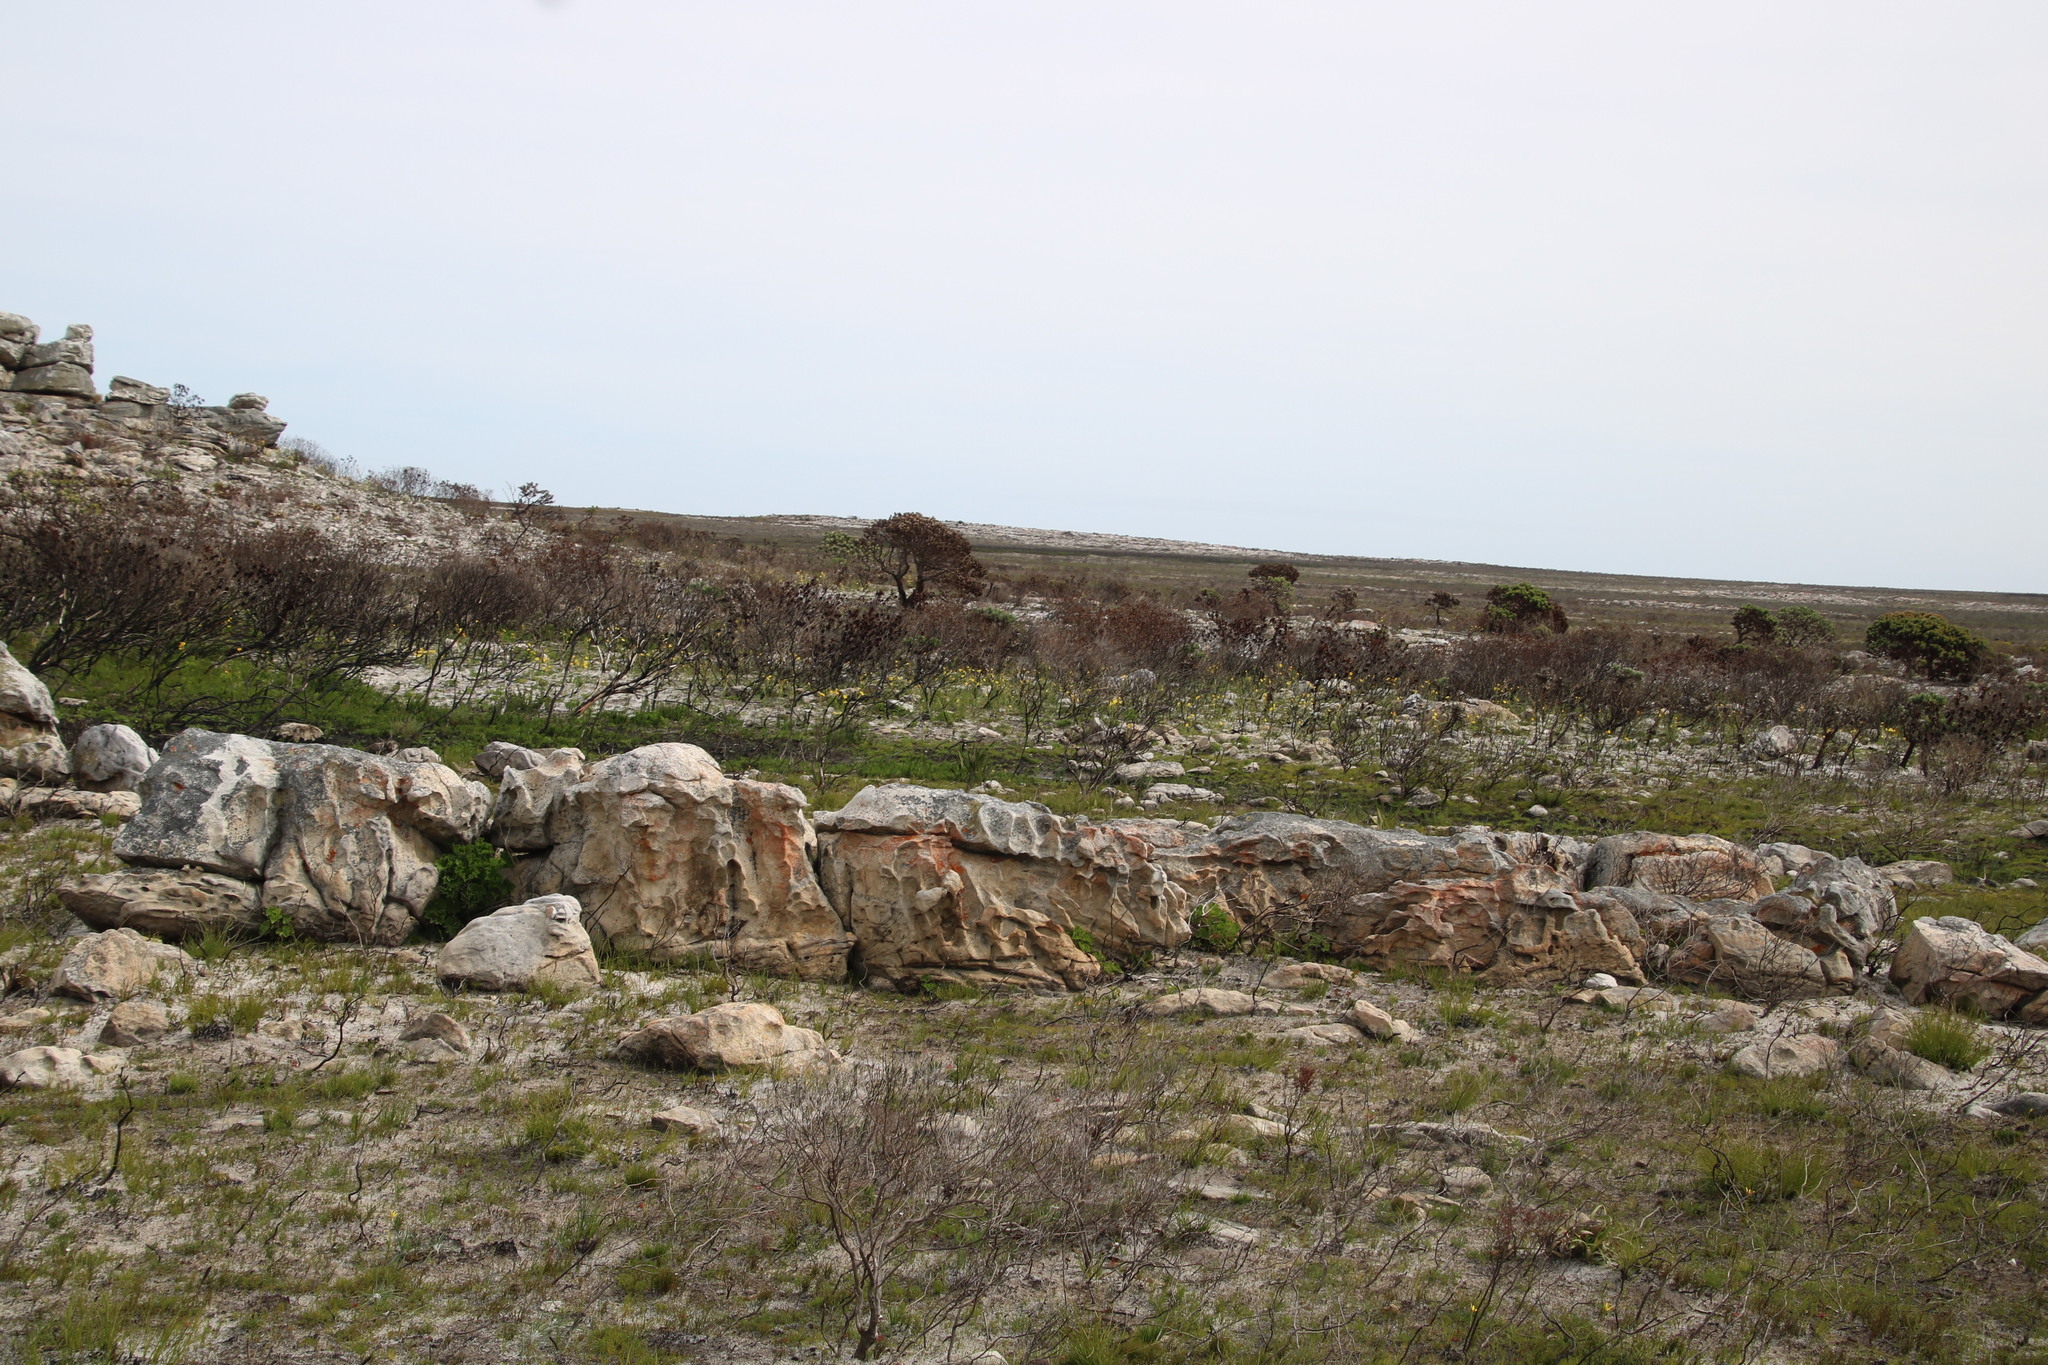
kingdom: Plantae
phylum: Tracheophyta
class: Liliopsida
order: Asparagales
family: Iridaceae
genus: Moraea
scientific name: Moraea ochroleuca
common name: Red tulp
